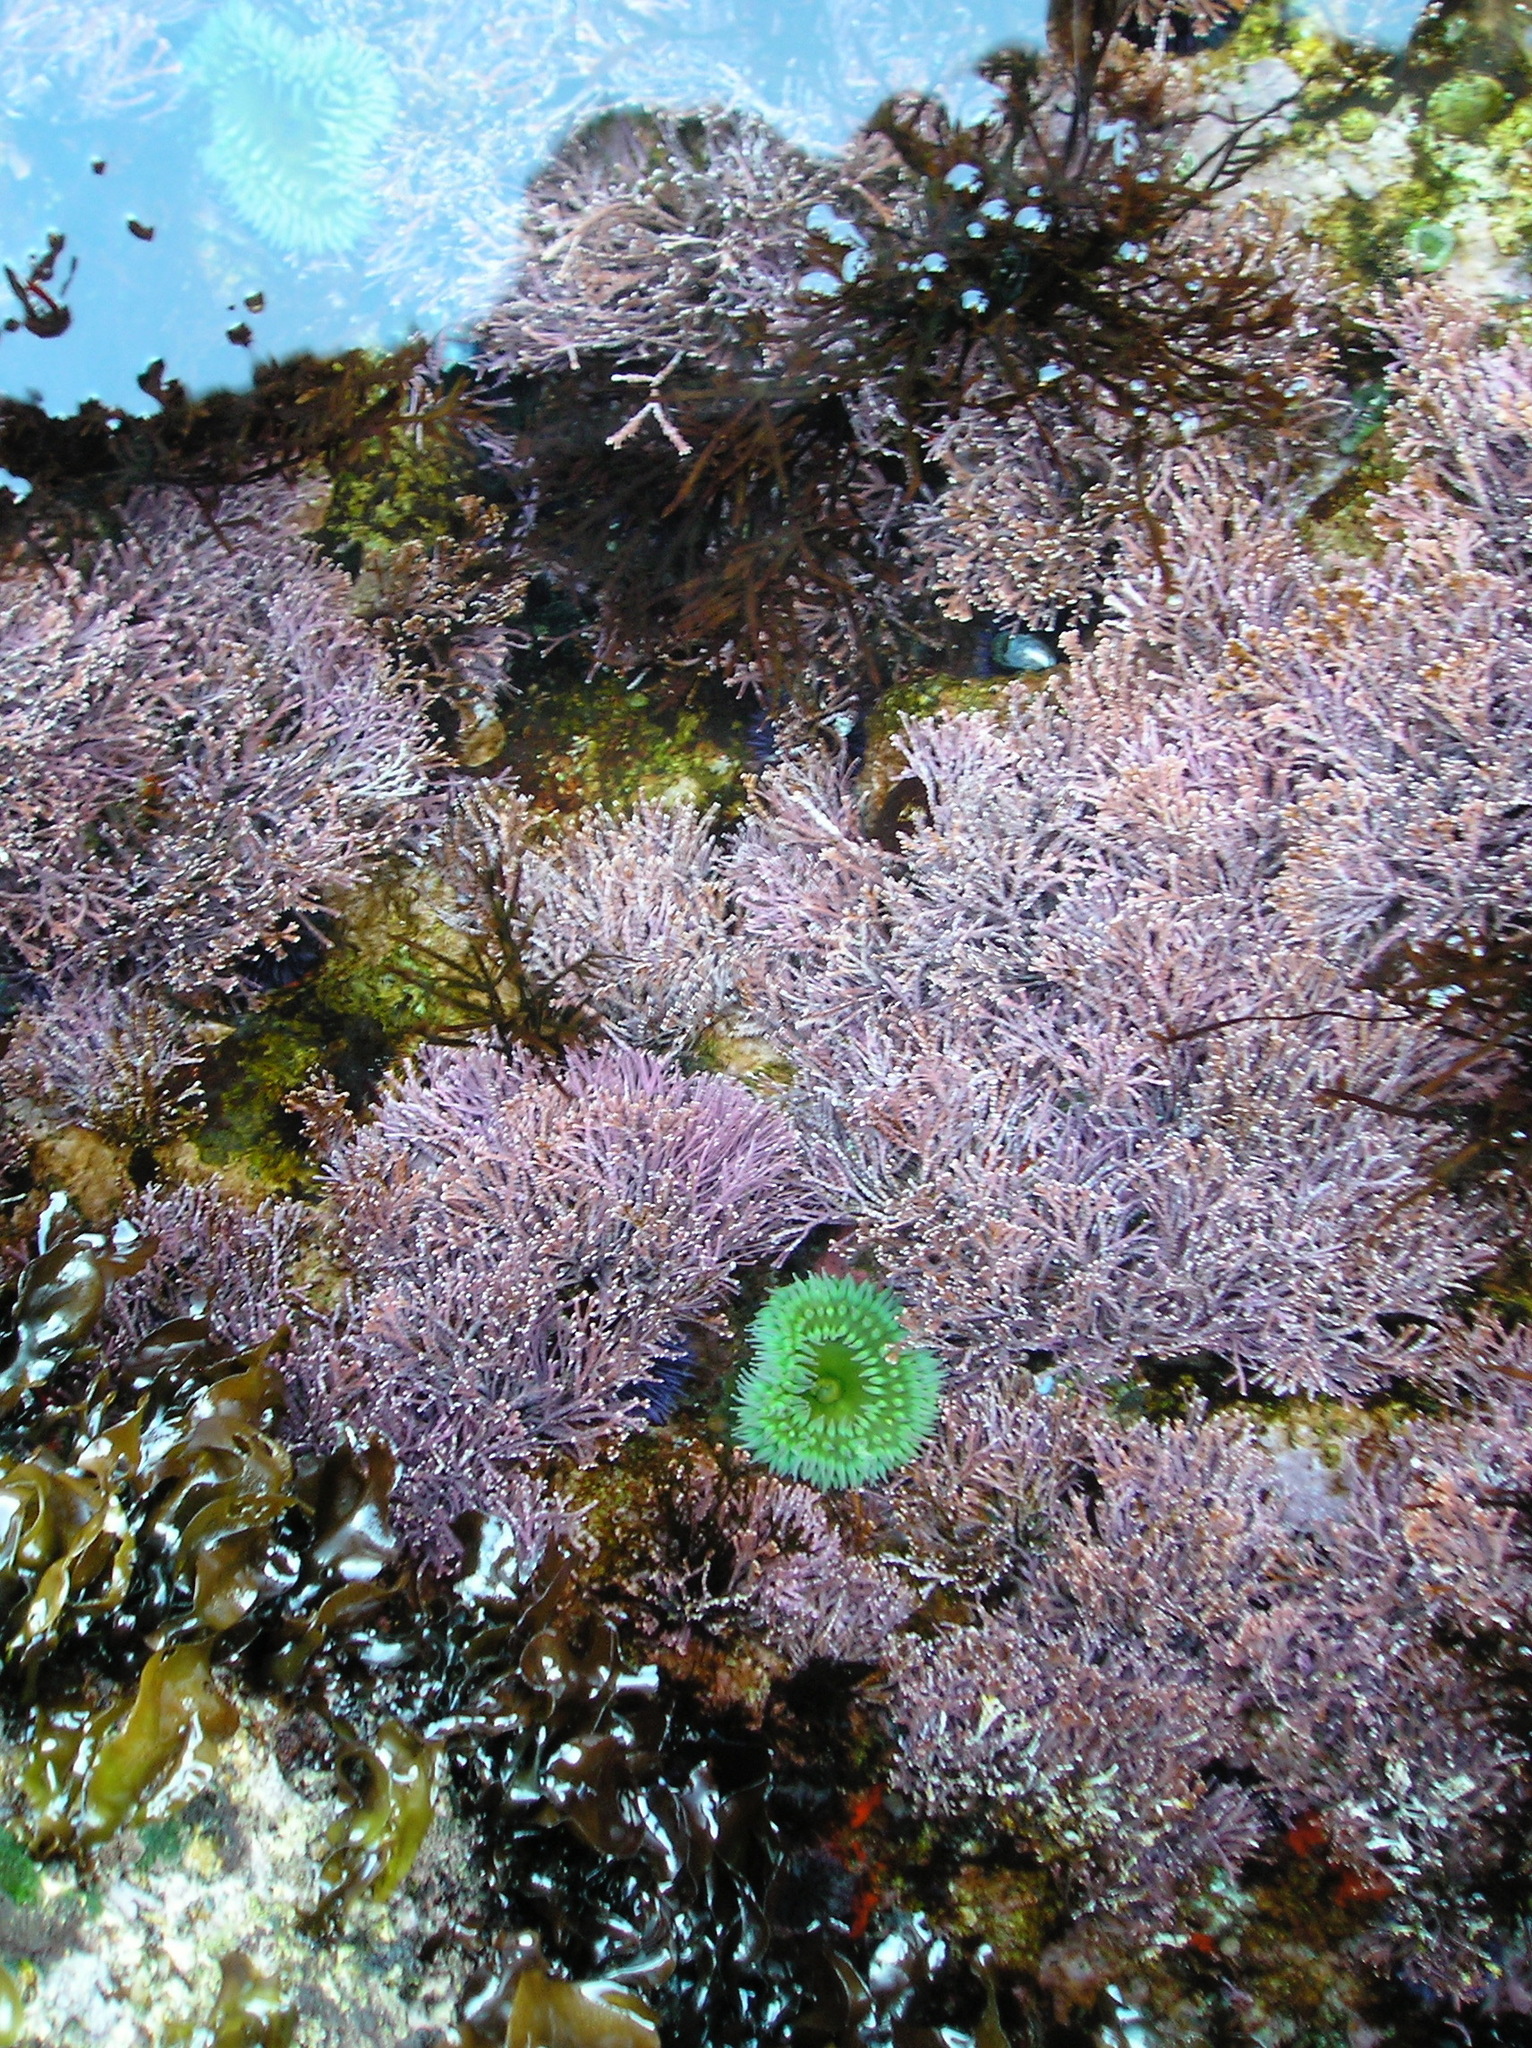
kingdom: Animalia
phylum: Cnidaria
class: Anthozoa
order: Actiniaria
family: Actiniidae
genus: Anthopleura
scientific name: Anthopleura xanthogrammica
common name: Giant green anemone
